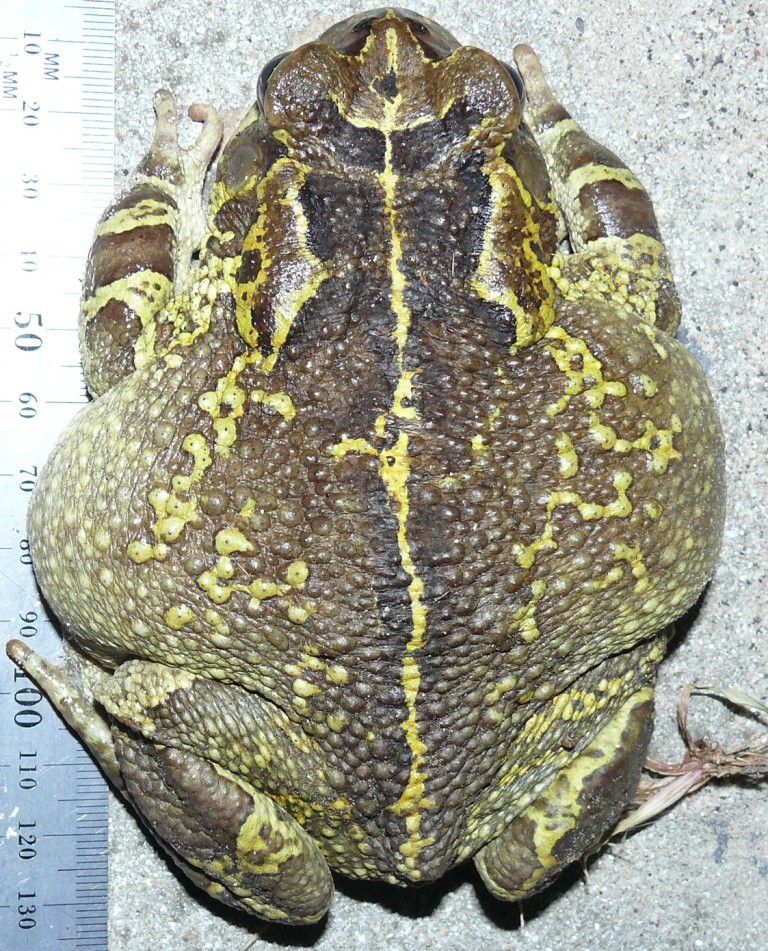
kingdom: Animalia
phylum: Chordata
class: Amphibia
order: Anura
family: Bufonidae
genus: Sclerophrys
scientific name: Sclerophrys pantherina
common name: Panther toad
